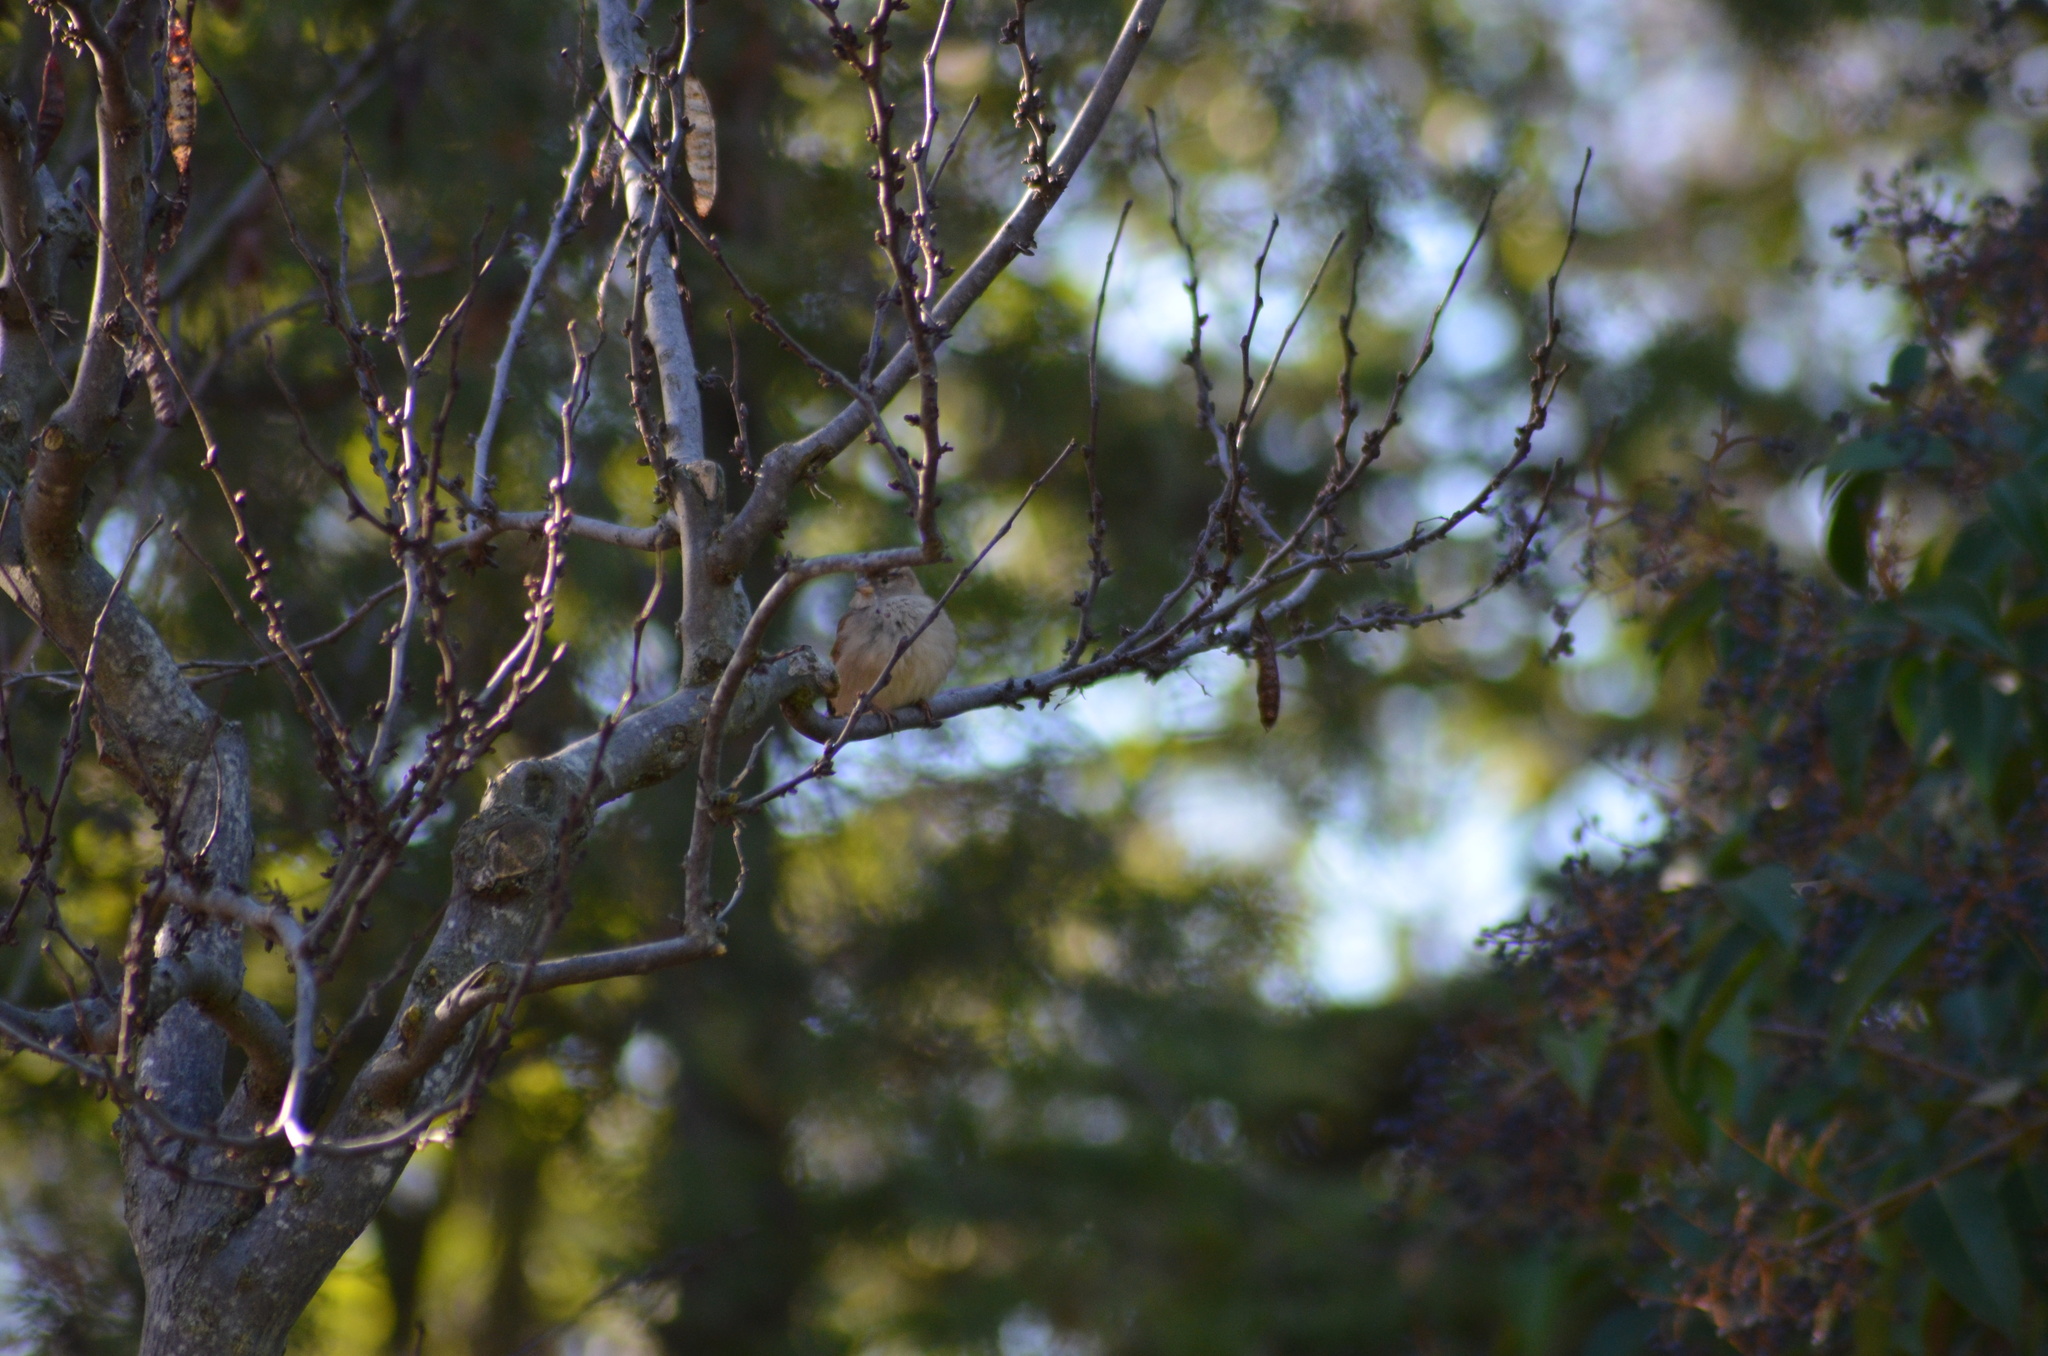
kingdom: Animalia
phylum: Chordata
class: Aves
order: Passeriformes
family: Passeridae
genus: Passer
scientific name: Passer domesticus
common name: House sparrow
